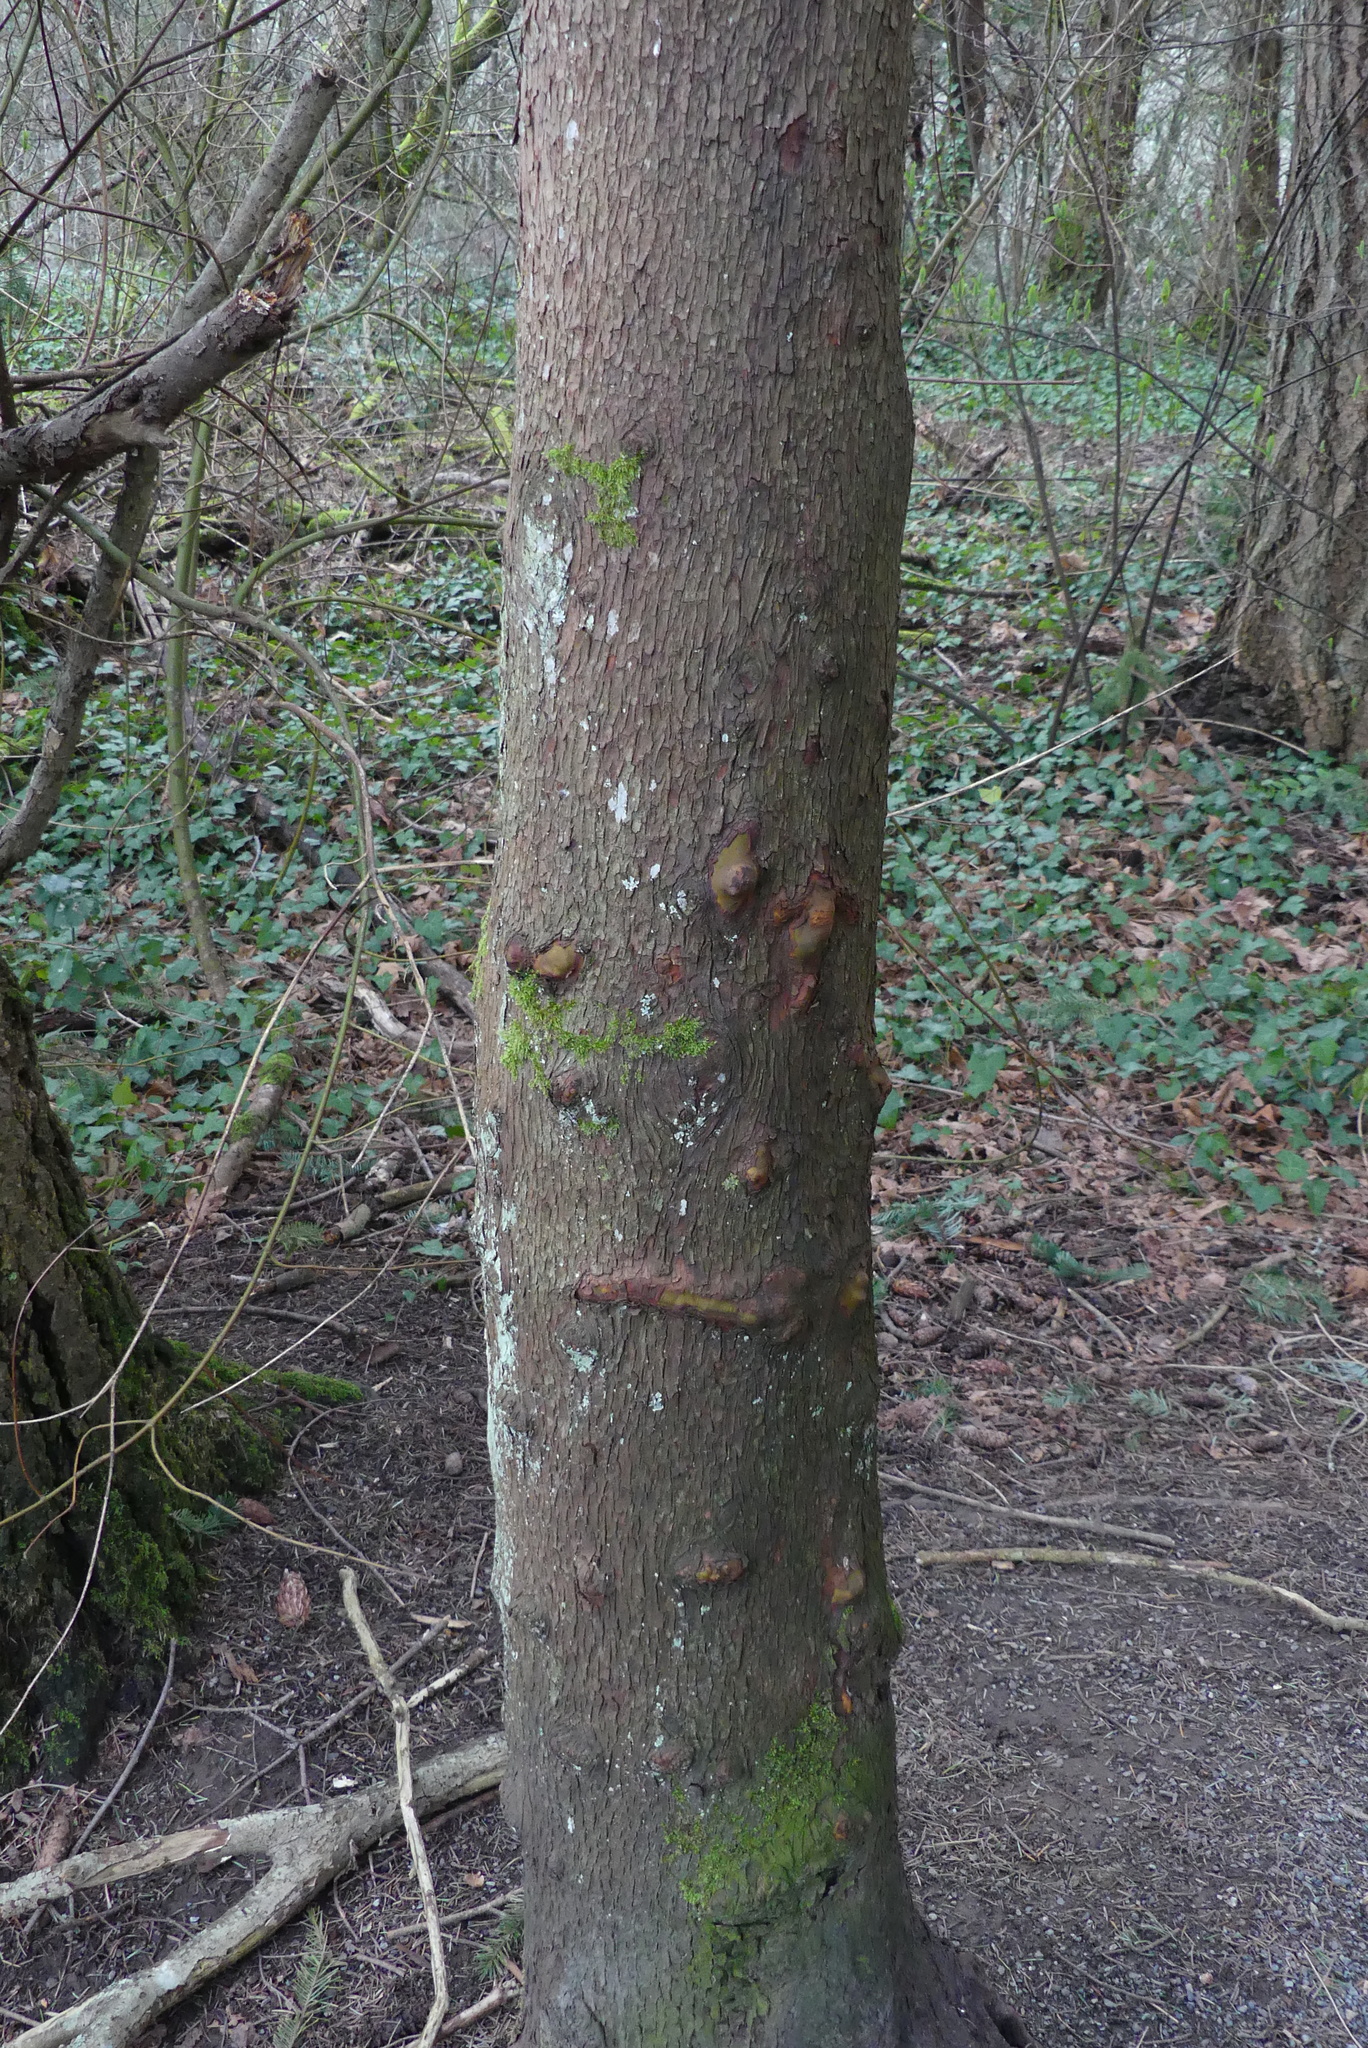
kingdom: Plantae
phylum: Tracheophyta
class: Magnoliopsida
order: Ericales
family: Ericaceae
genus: Arbutus
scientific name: Arbutus menziesii
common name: Pacific madrone
